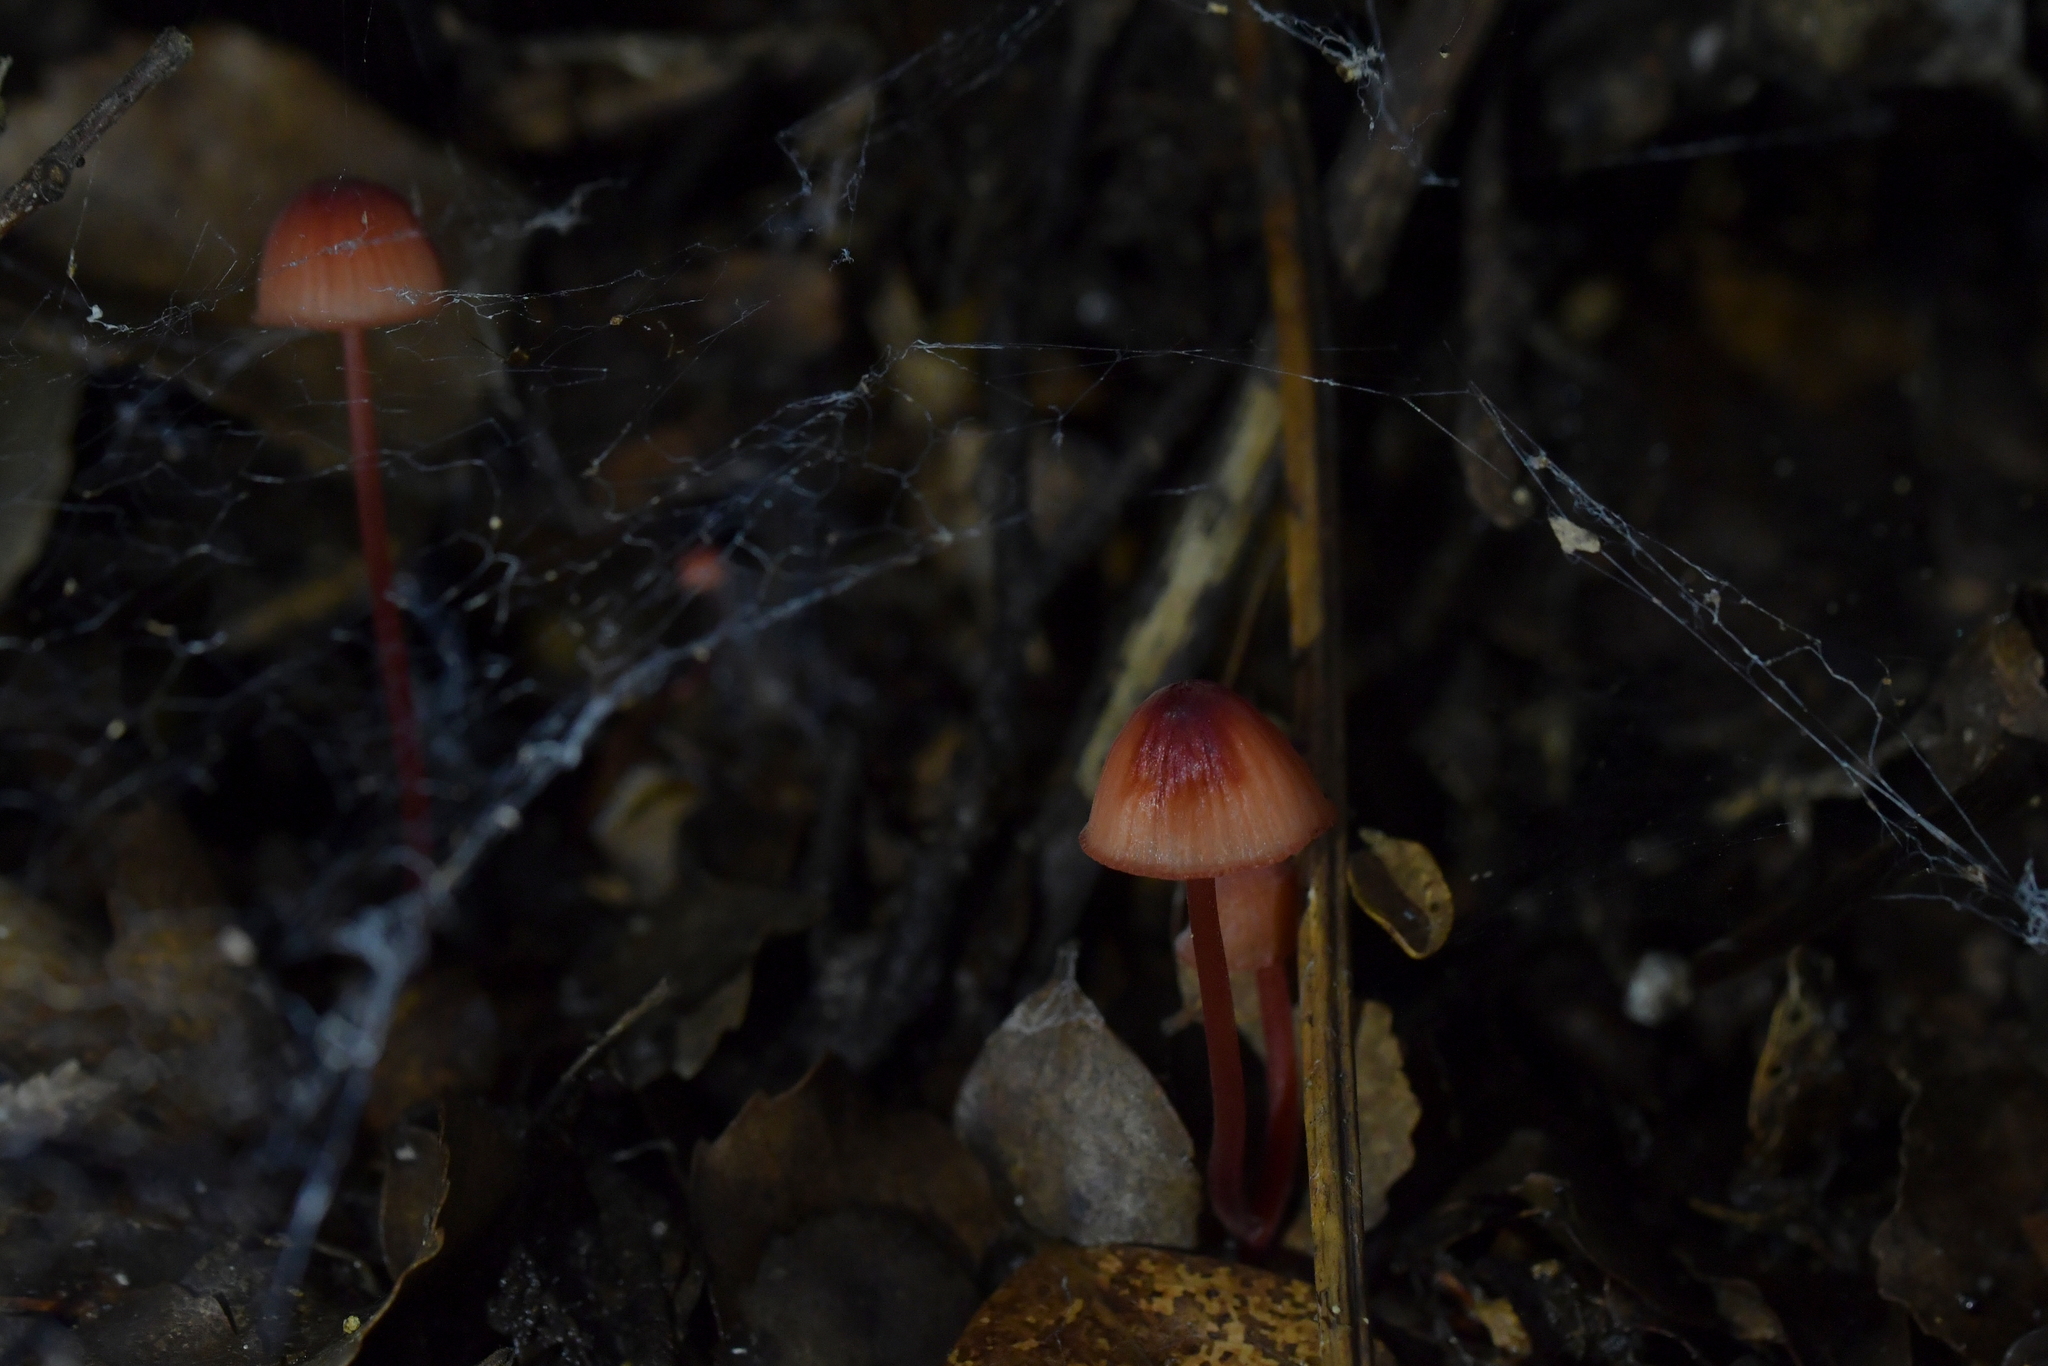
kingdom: Fungi
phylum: Basidiomycota
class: Agaricomycetes
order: Agaricales
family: Mycenaceae
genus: Mycena
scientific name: Mycena ura
